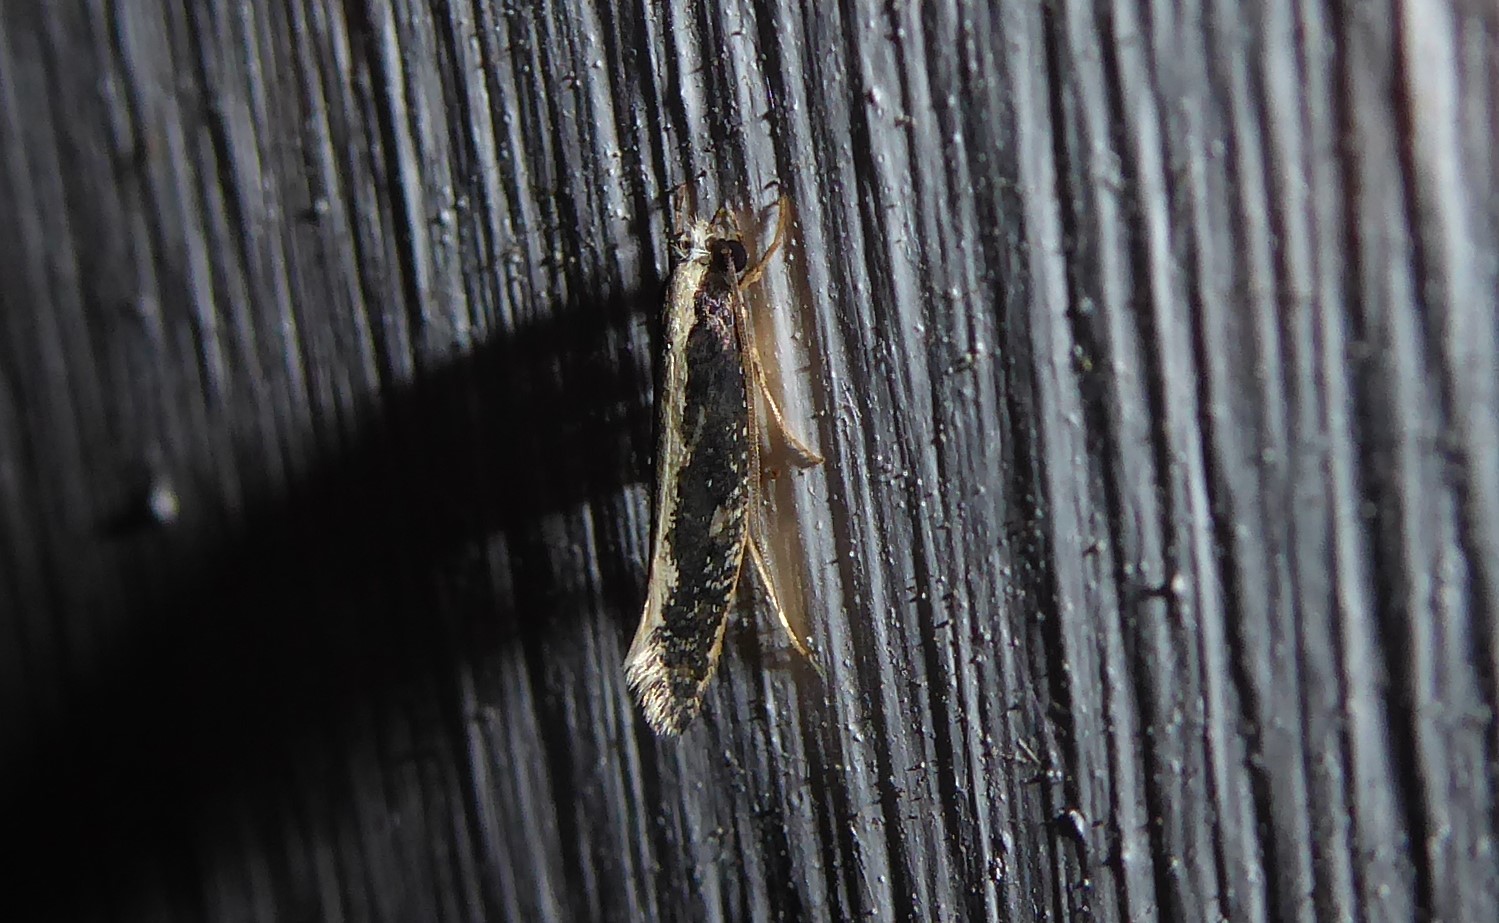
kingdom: Animalia
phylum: Arthropoda
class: Insecta
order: Lepidoptera
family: Tineidae
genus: Monopis
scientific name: Monopis ethelella
